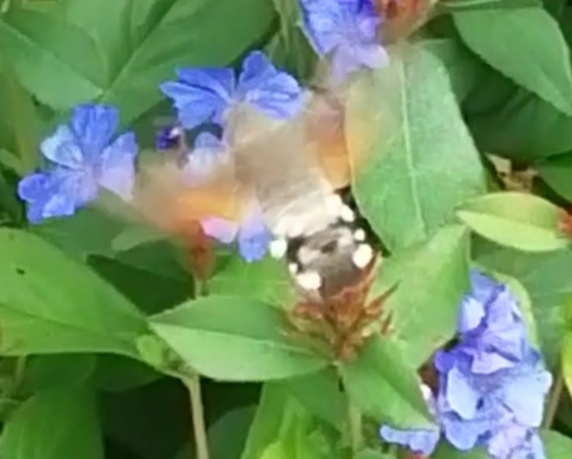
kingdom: Animalia
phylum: Arthropoda
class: Insecta
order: Lepidoptera
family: Sphingidae
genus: Macroglossum
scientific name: Macroglossum stellatarum
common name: Humming-bird hawk-moth
